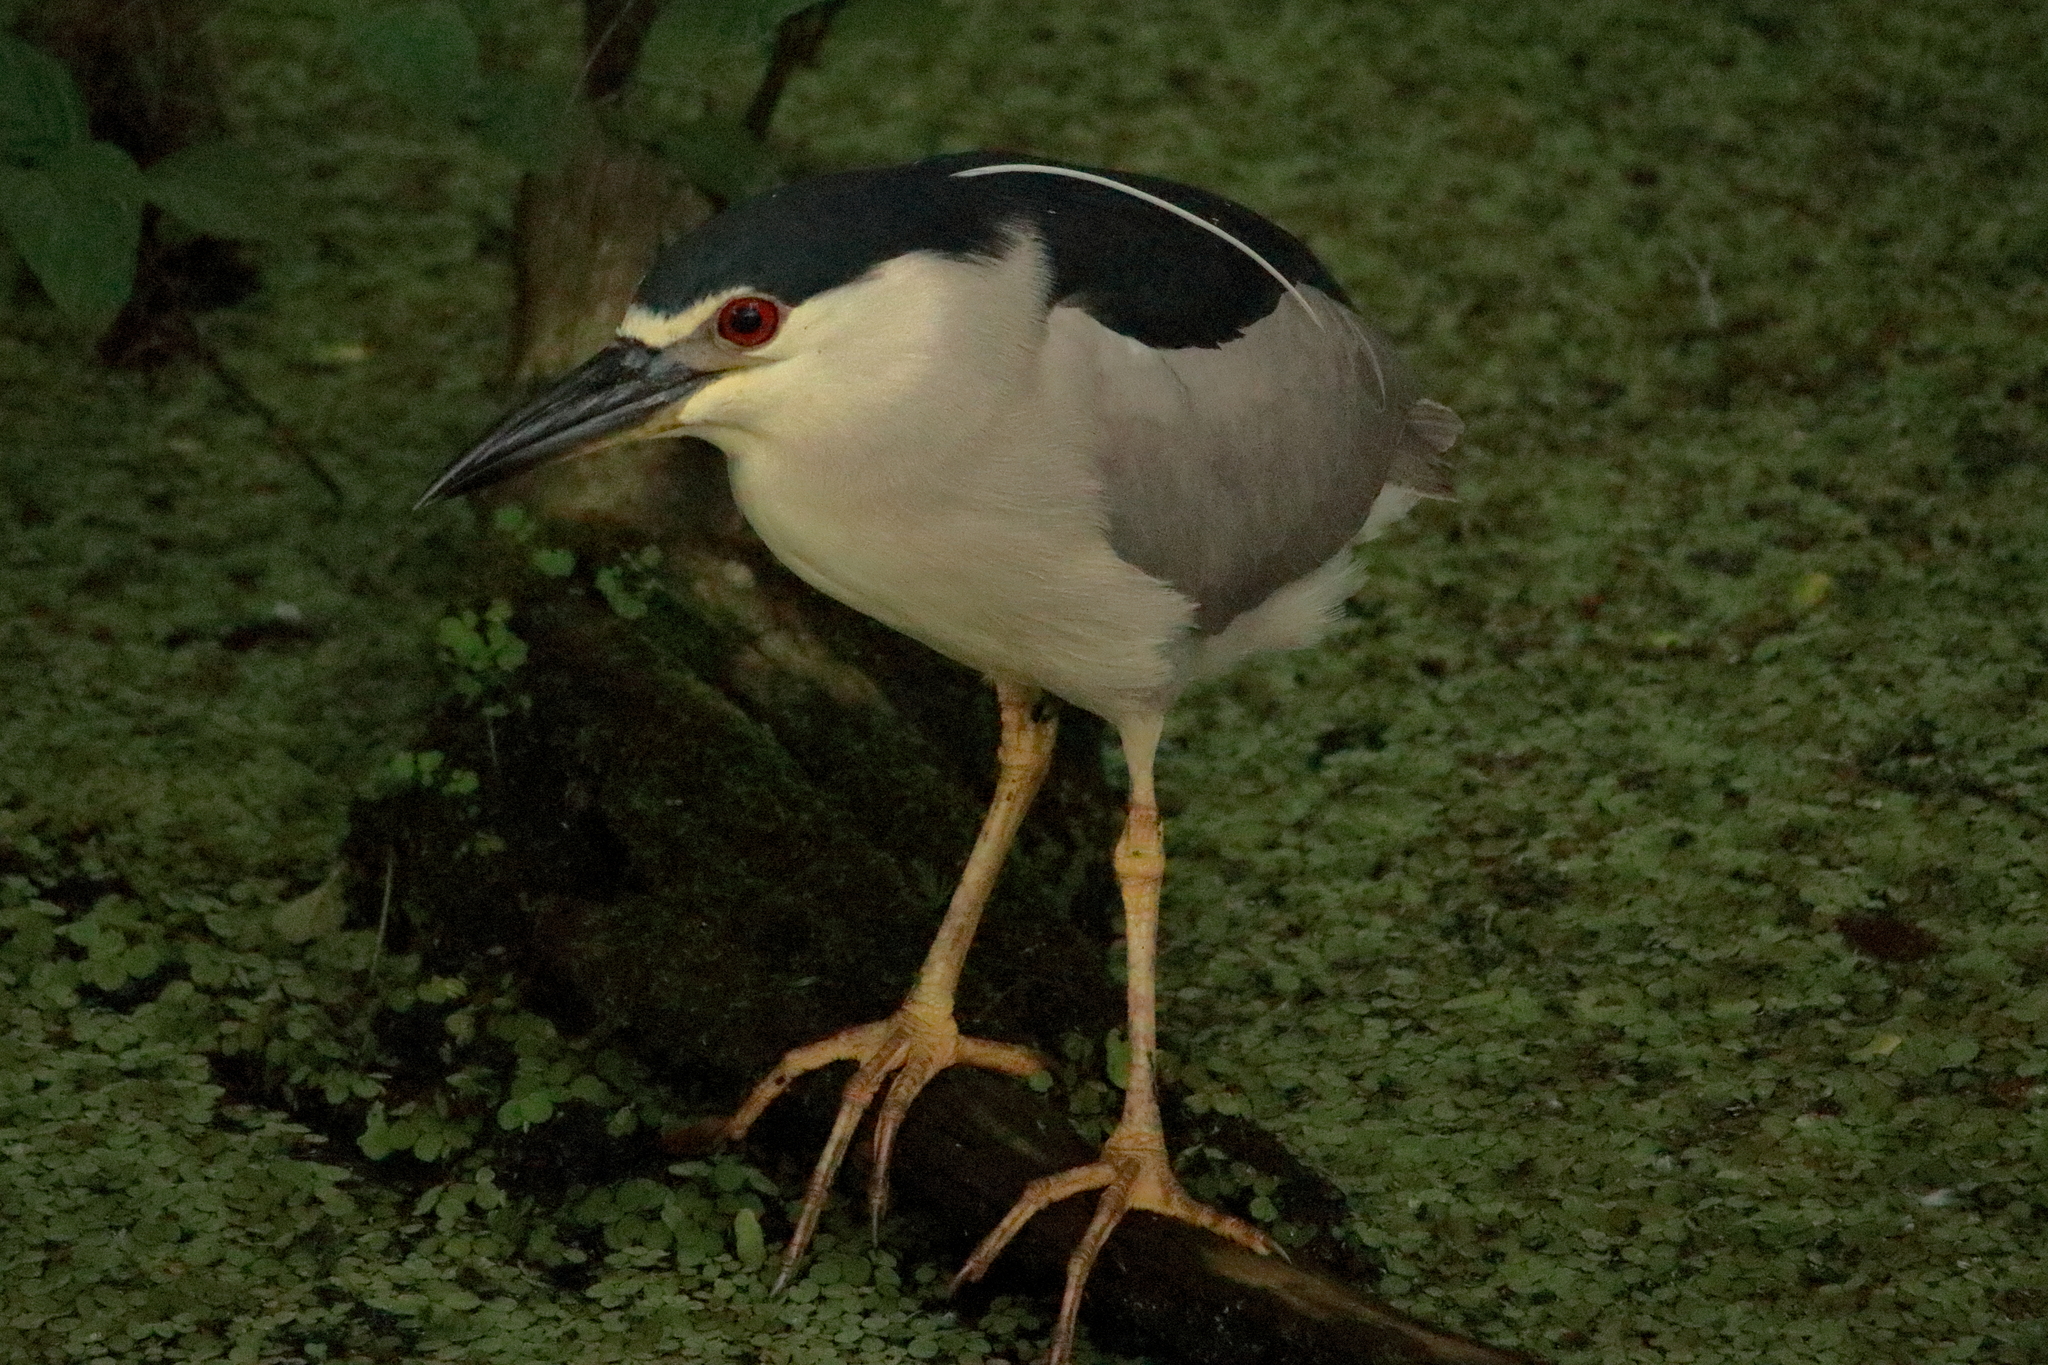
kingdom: Animalia
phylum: Chordata
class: Aves
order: Pelecaniformes
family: Ardeidae
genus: Nycticorax
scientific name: Nycticorax nycticorax
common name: Black-crowned night heron
